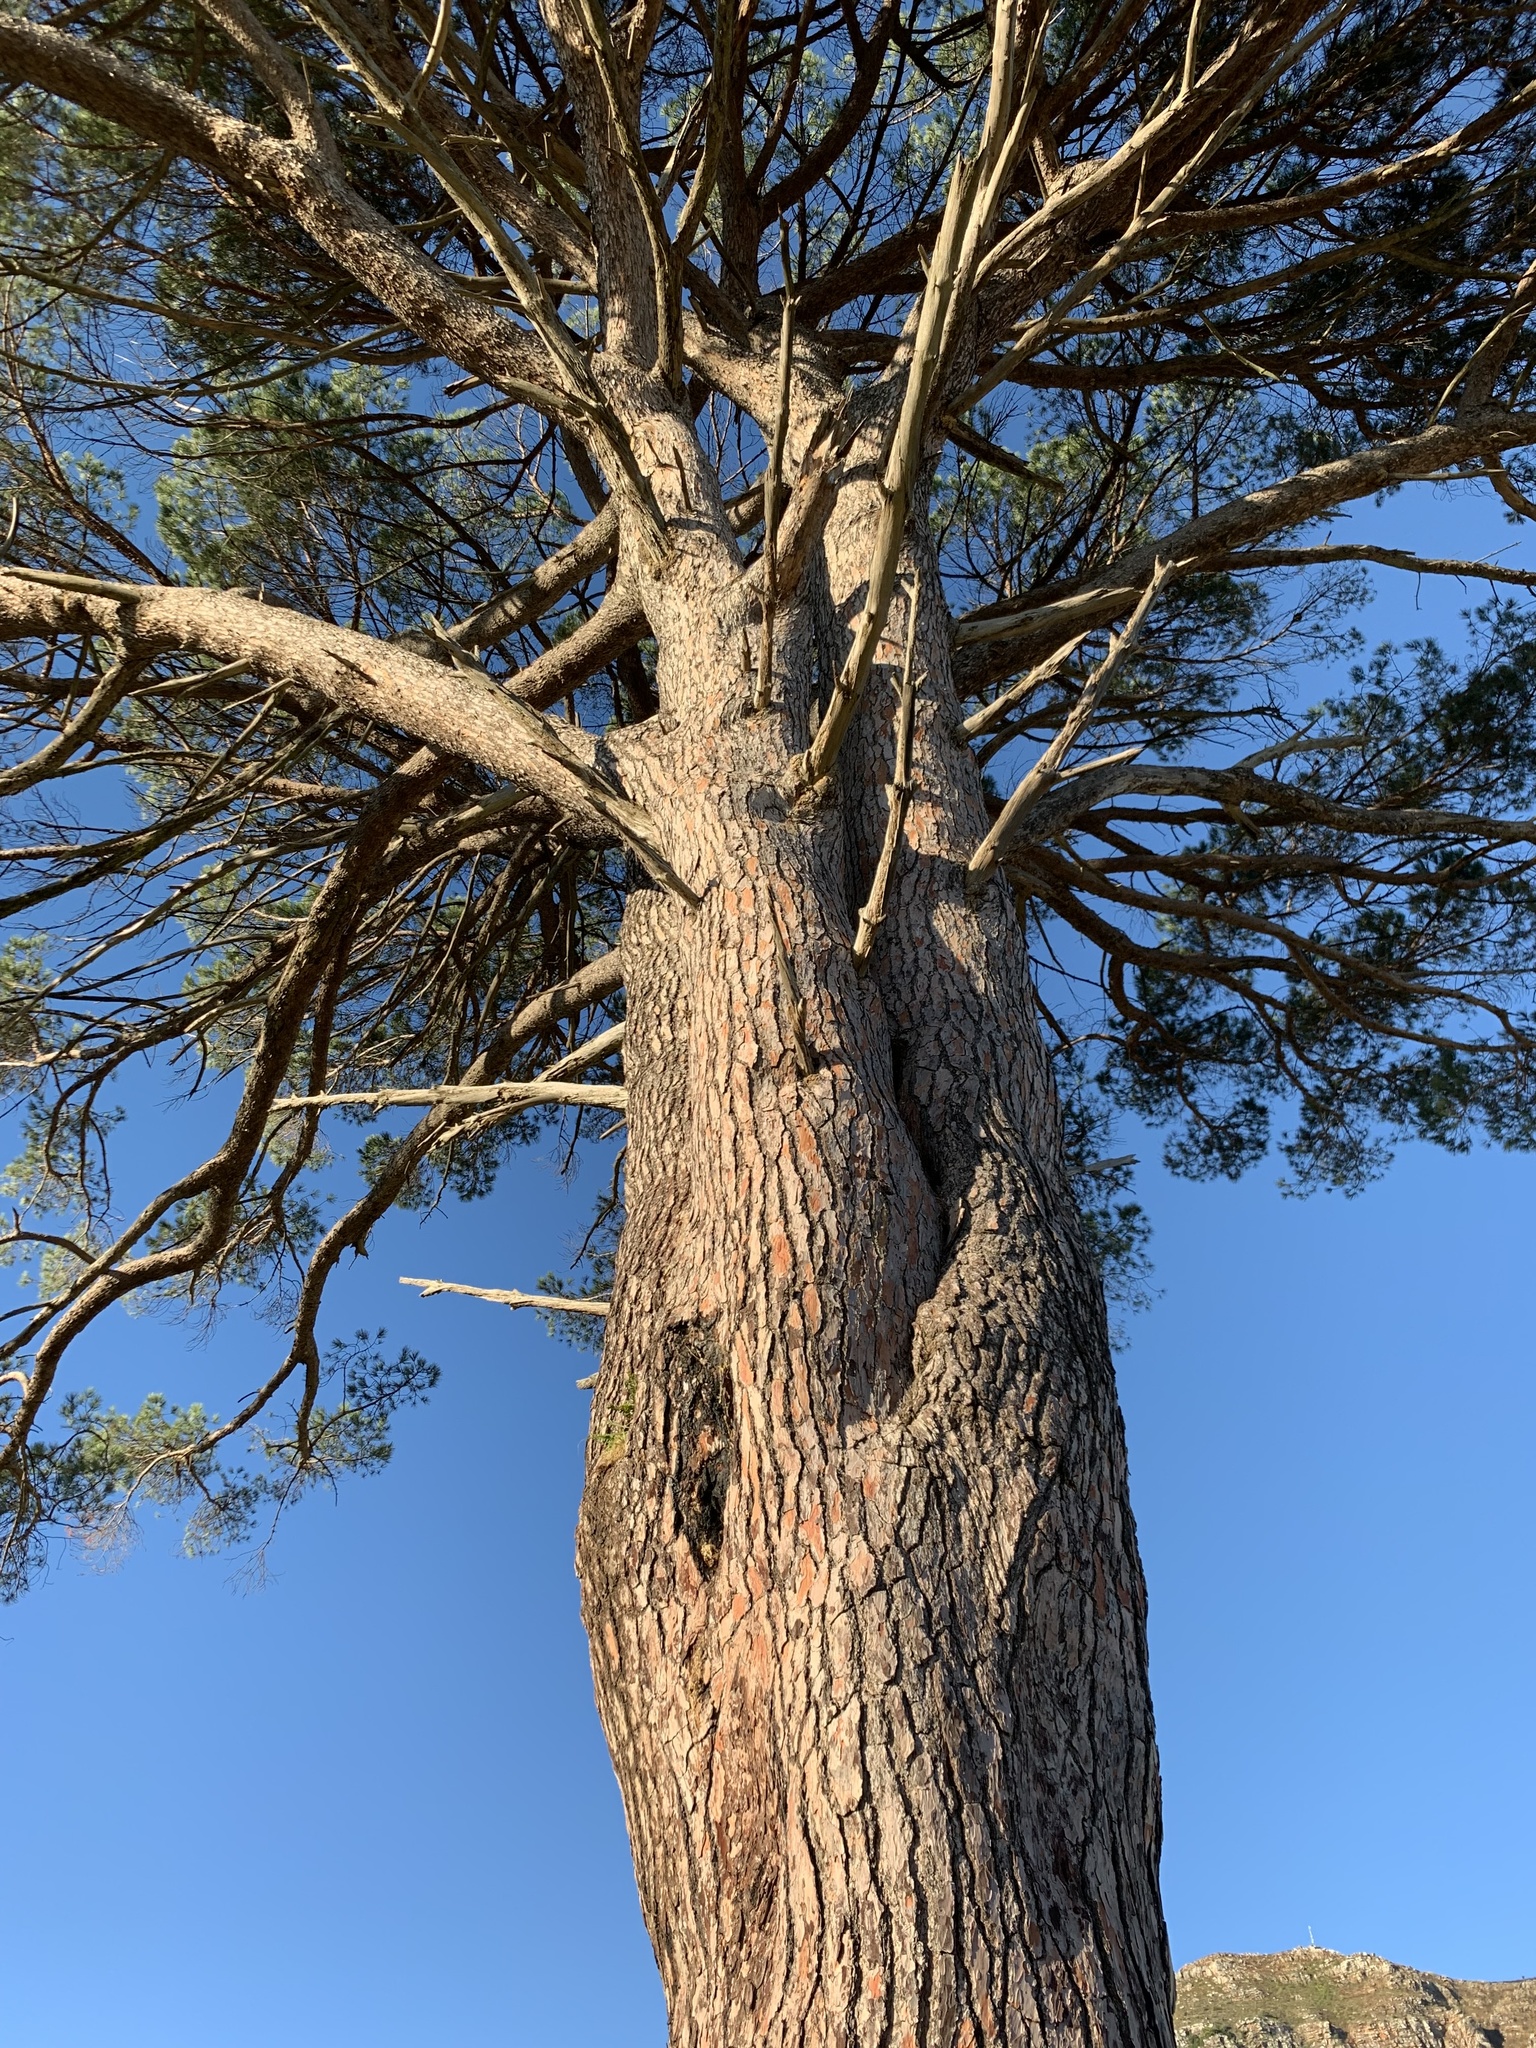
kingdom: Plantae
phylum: Tracheophyta
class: Magnoliopsida
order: Myrtales
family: Myrtaceae
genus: Eucalyptus
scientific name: Eucalyptus cladocalyx
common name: Sugargum
